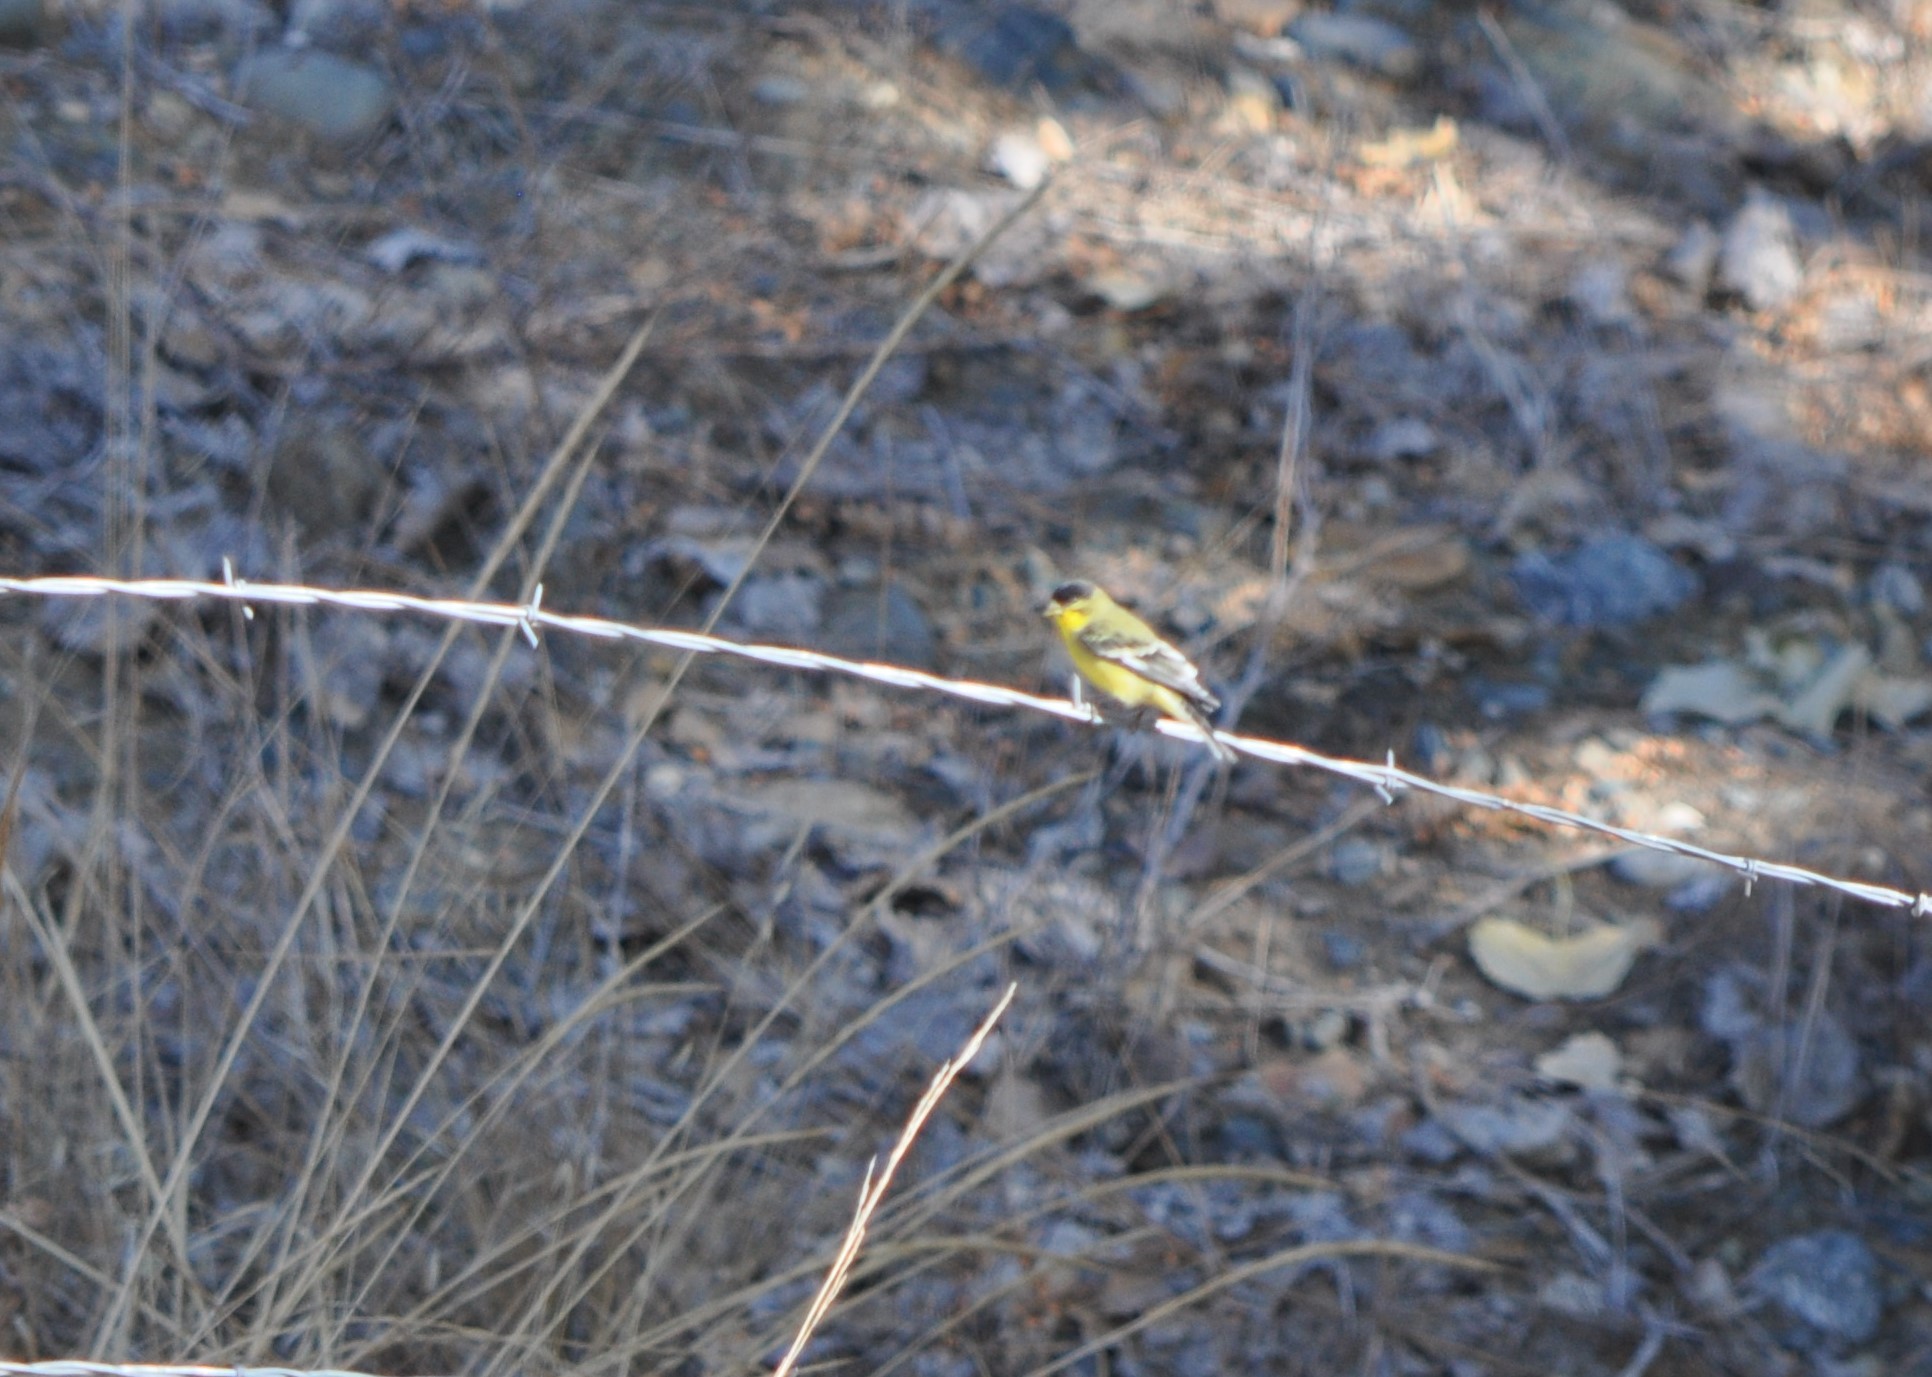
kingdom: Animalia
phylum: Chordata
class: Aves
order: Passeriformes
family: Fringillidae
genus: Spinus
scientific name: Spinus psaltria
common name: Lesser goldfinch
